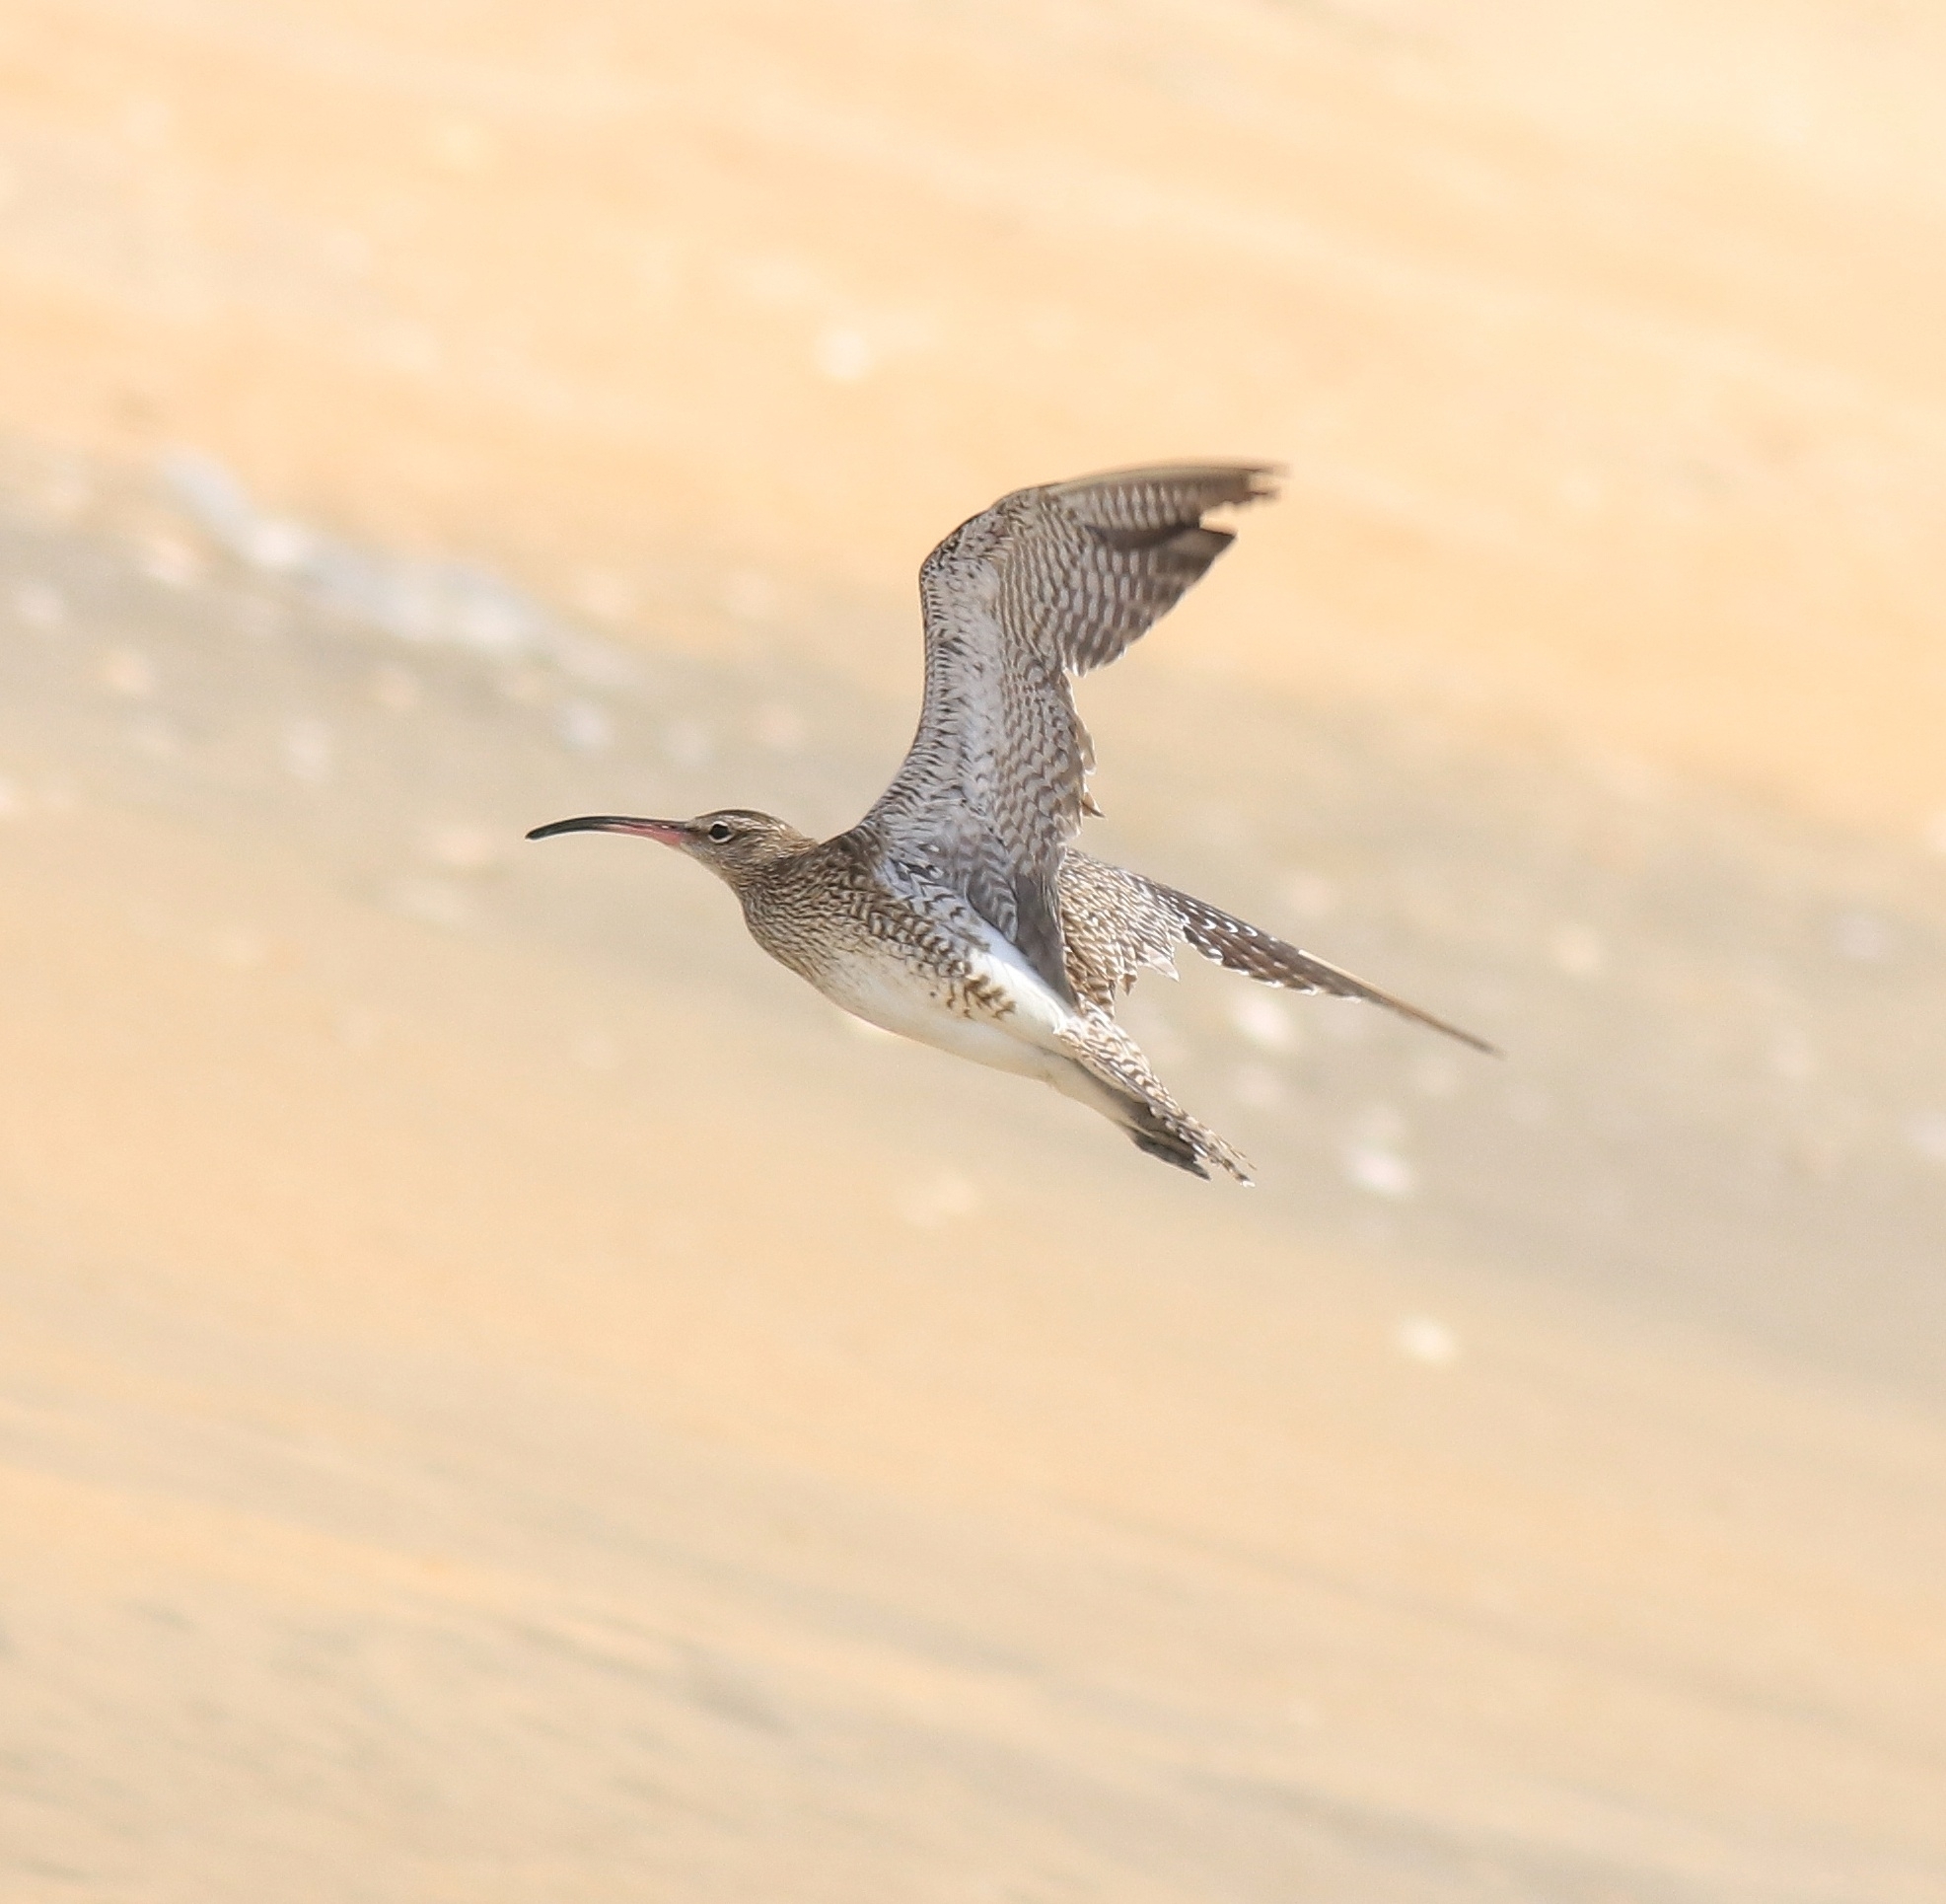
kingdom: Animalia
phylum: Chordata
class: Aves
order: Charadriiformes
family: Scolopacidae
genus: Numenius
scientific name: Numenius phaeopus
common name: Whimbrel
